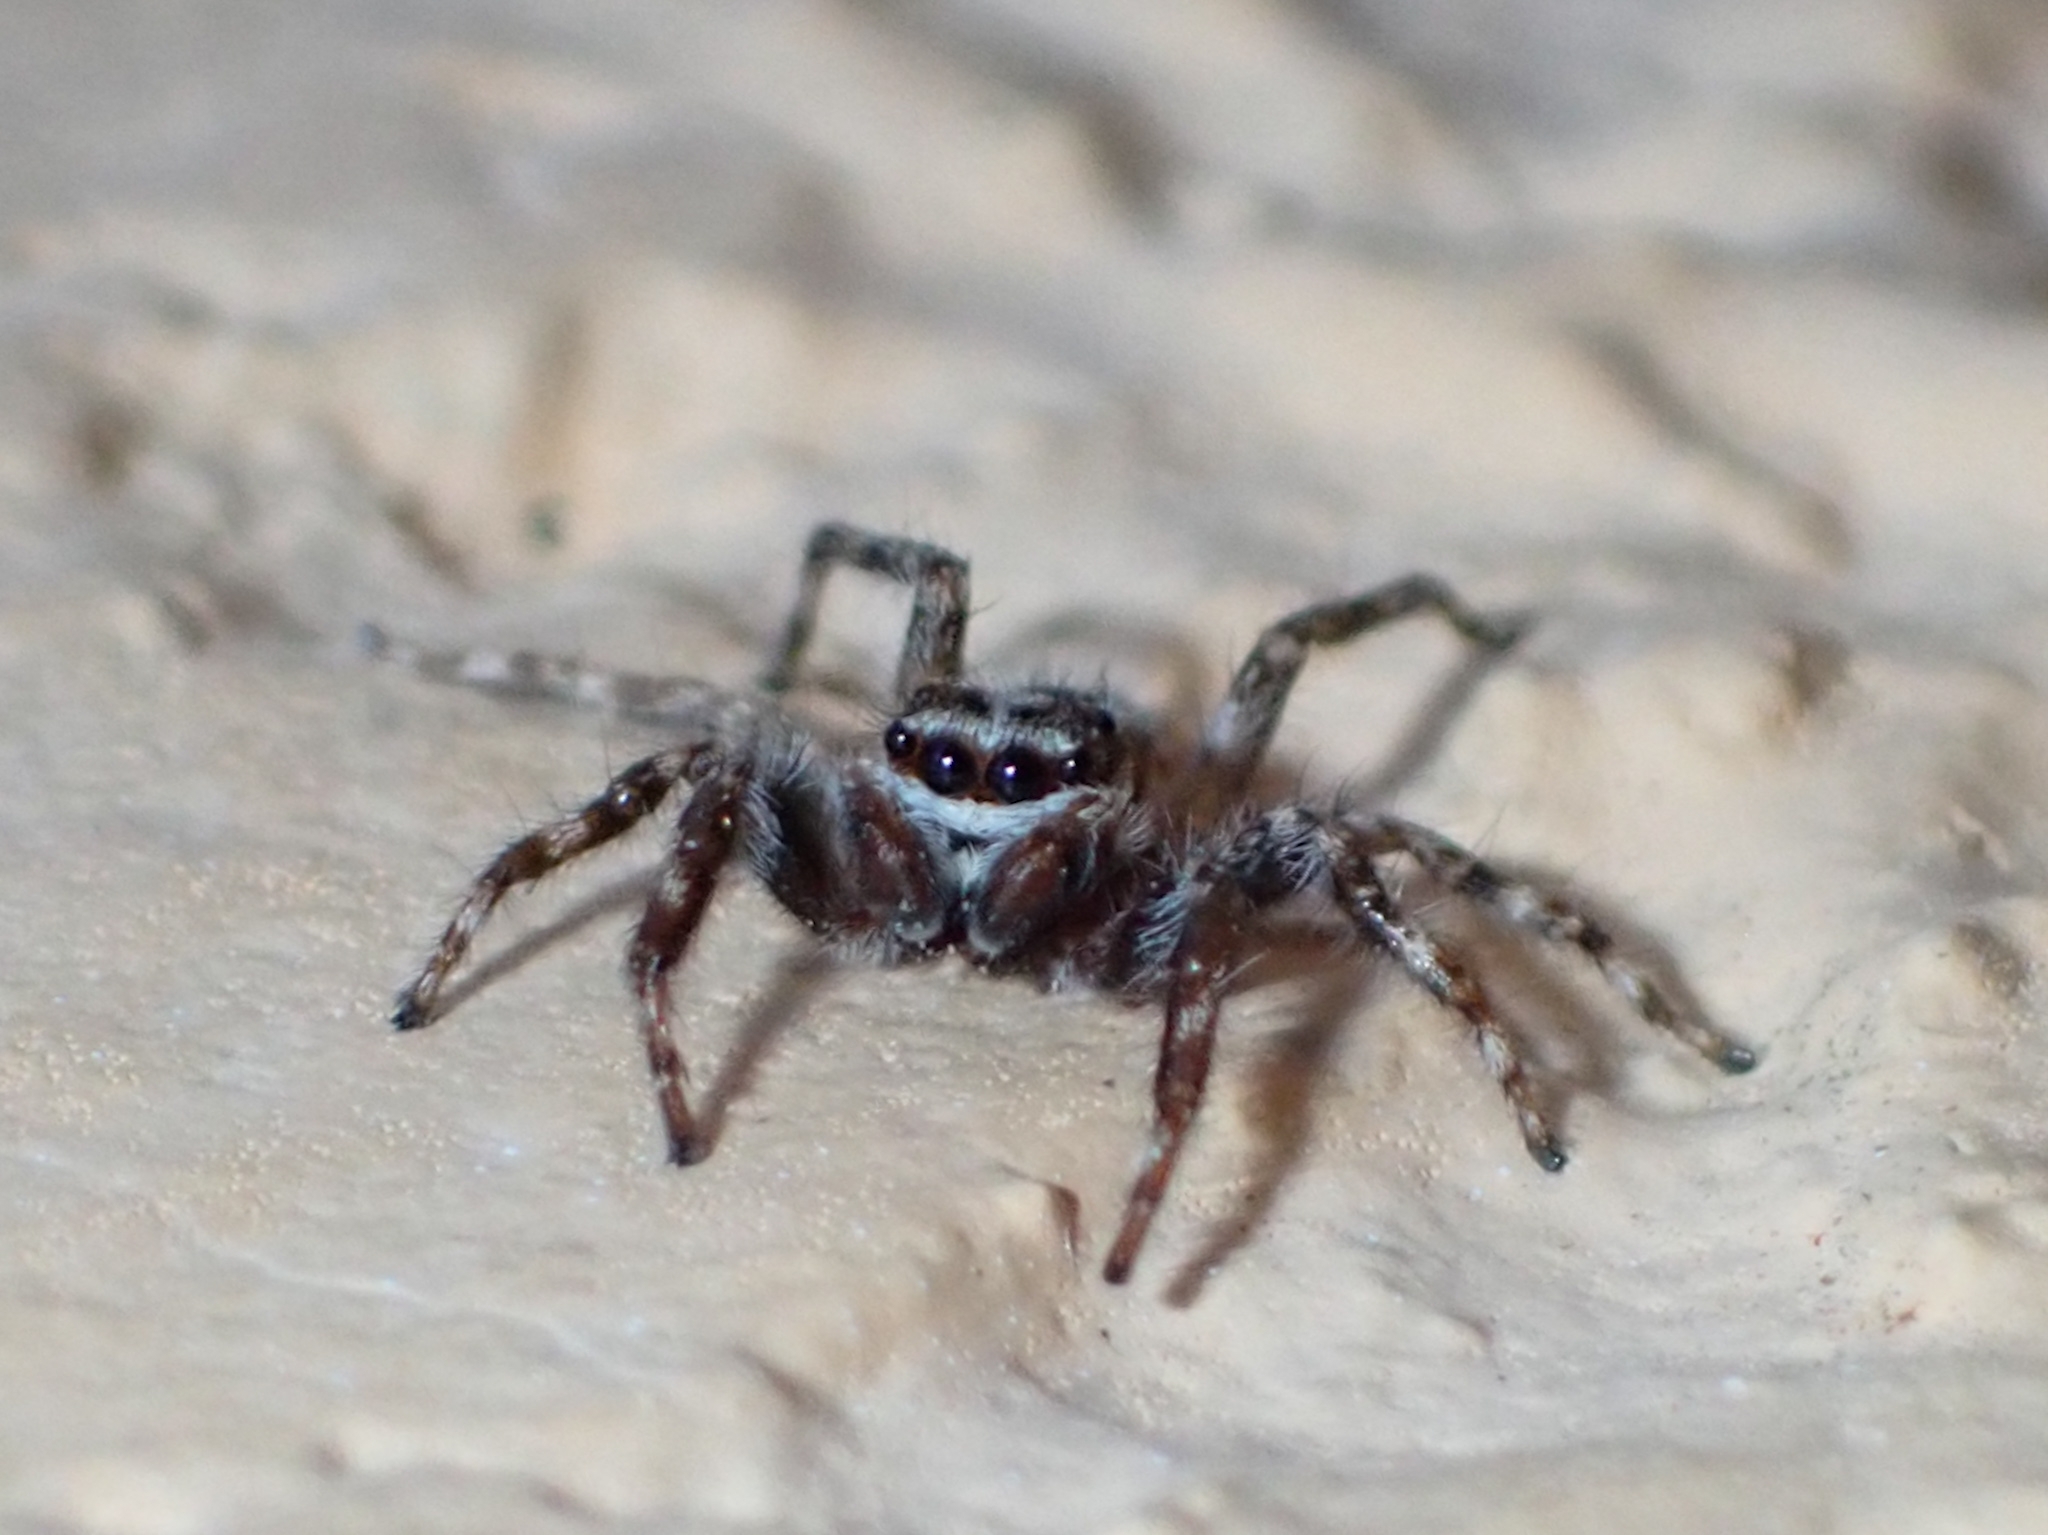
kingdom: Animalia
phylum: Arthropoda
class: Arachnida
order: Araneae
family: Salticidae
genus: Menemerus
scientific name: Menemerus bivittatus
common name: Gray wall jumper
